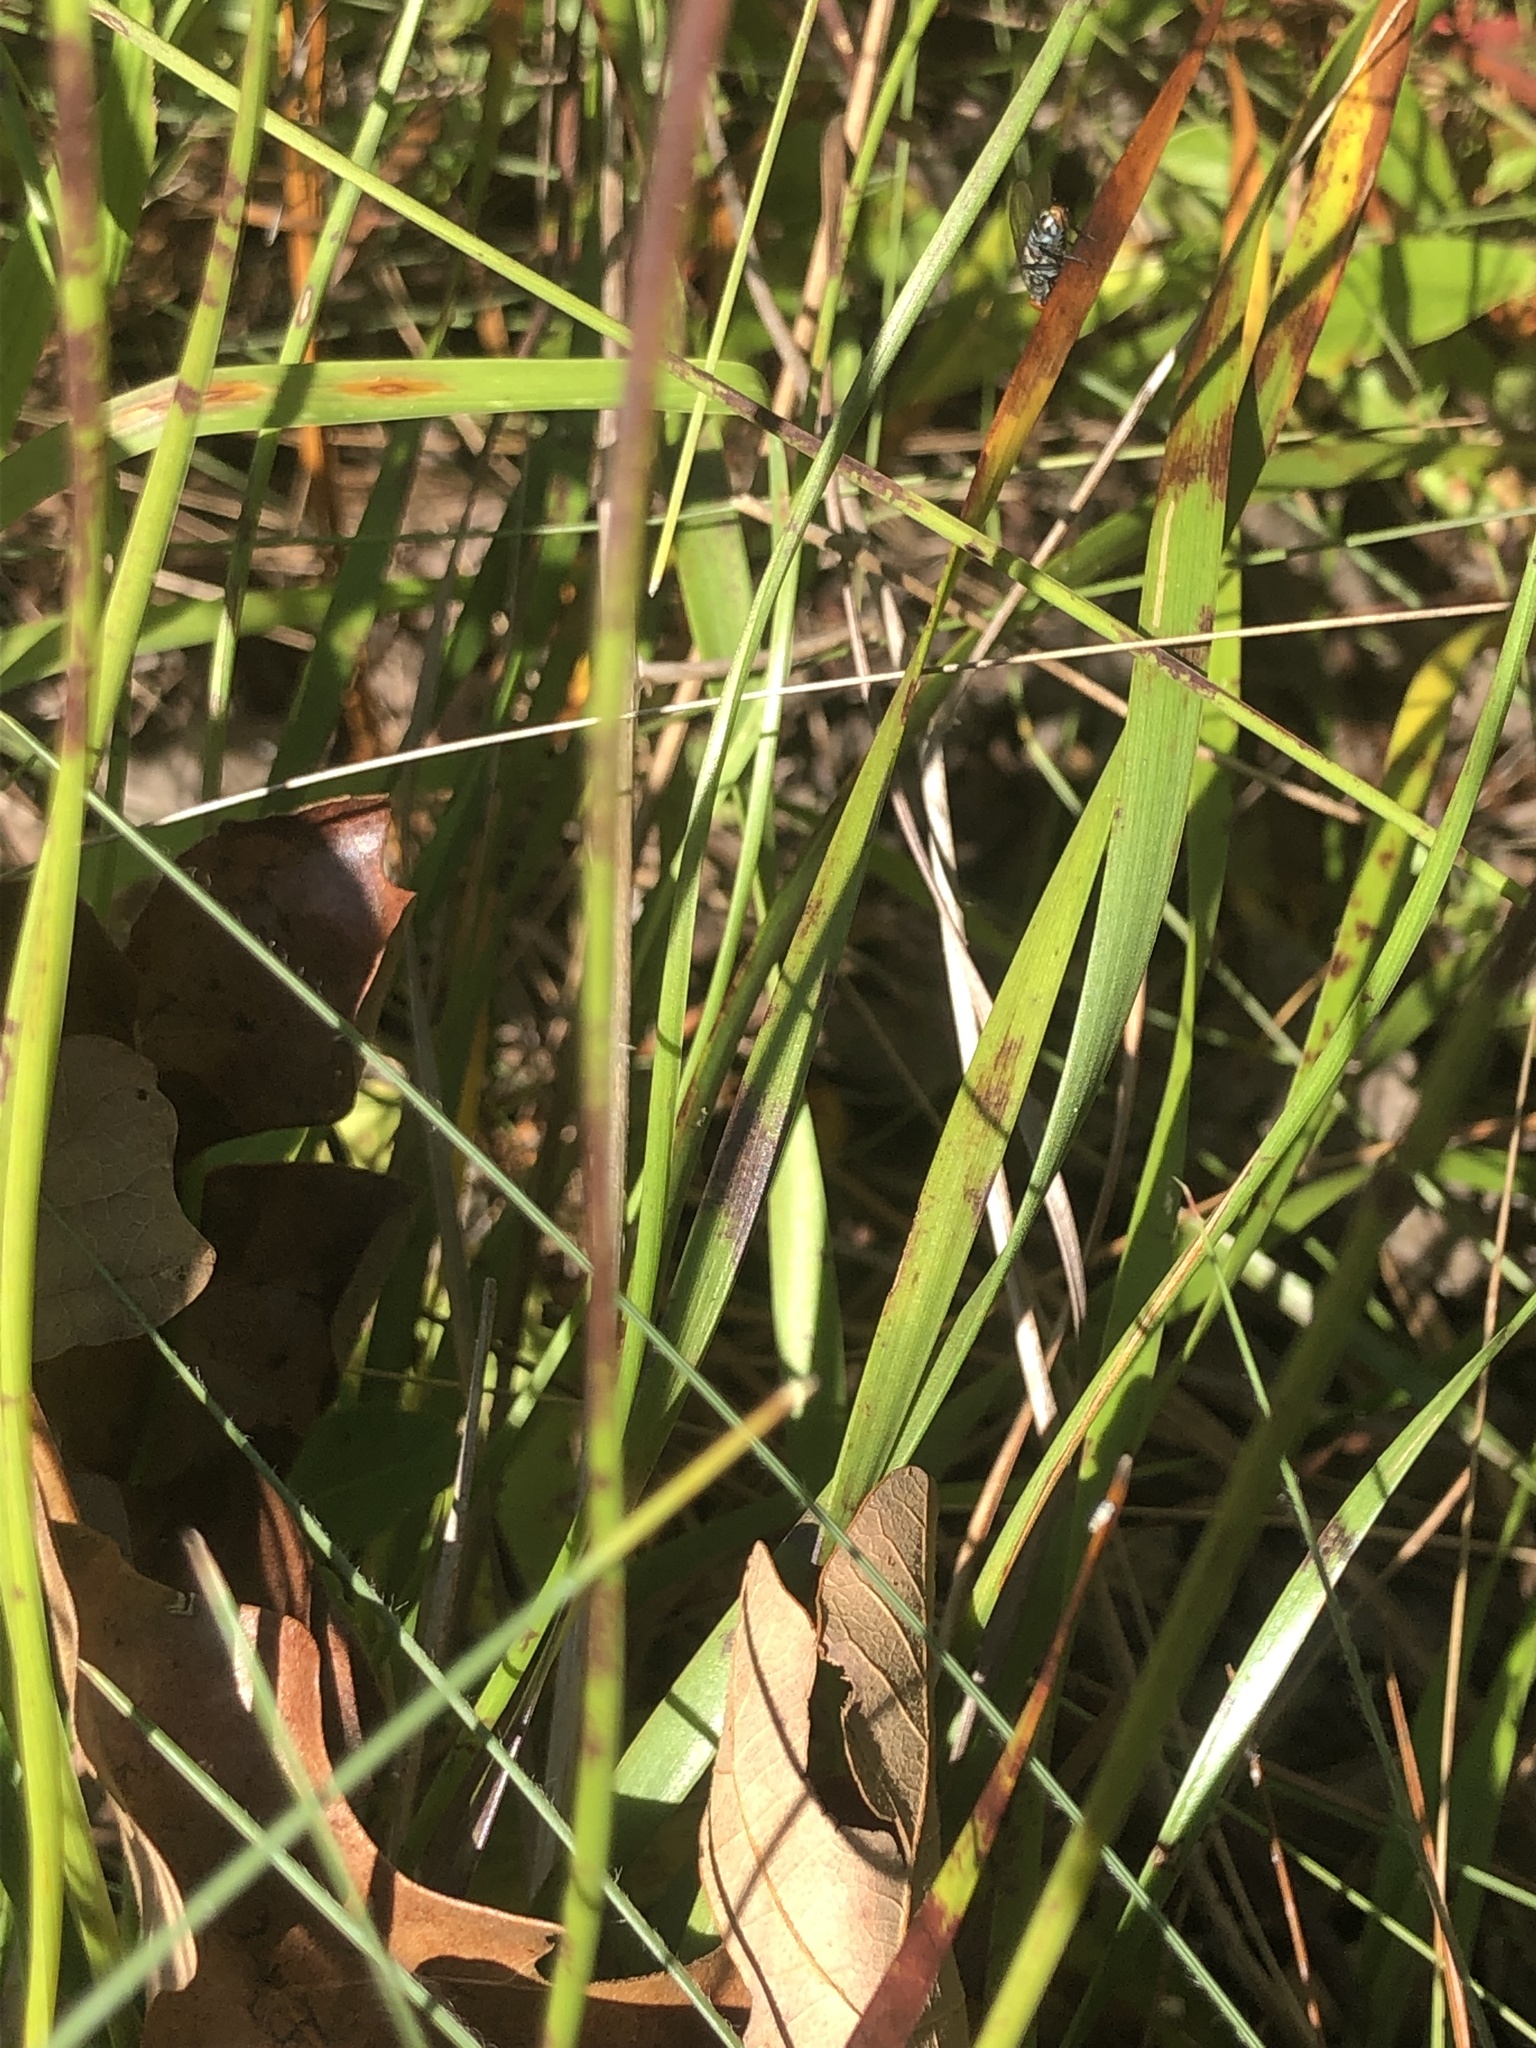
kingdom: Plantae
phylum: Tracheophyta
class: Liliopsida
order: Poales
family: Xyridaceae
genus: Xyris
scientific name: Xyris caroliniana
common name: Carolina yellow-eyed-grass
